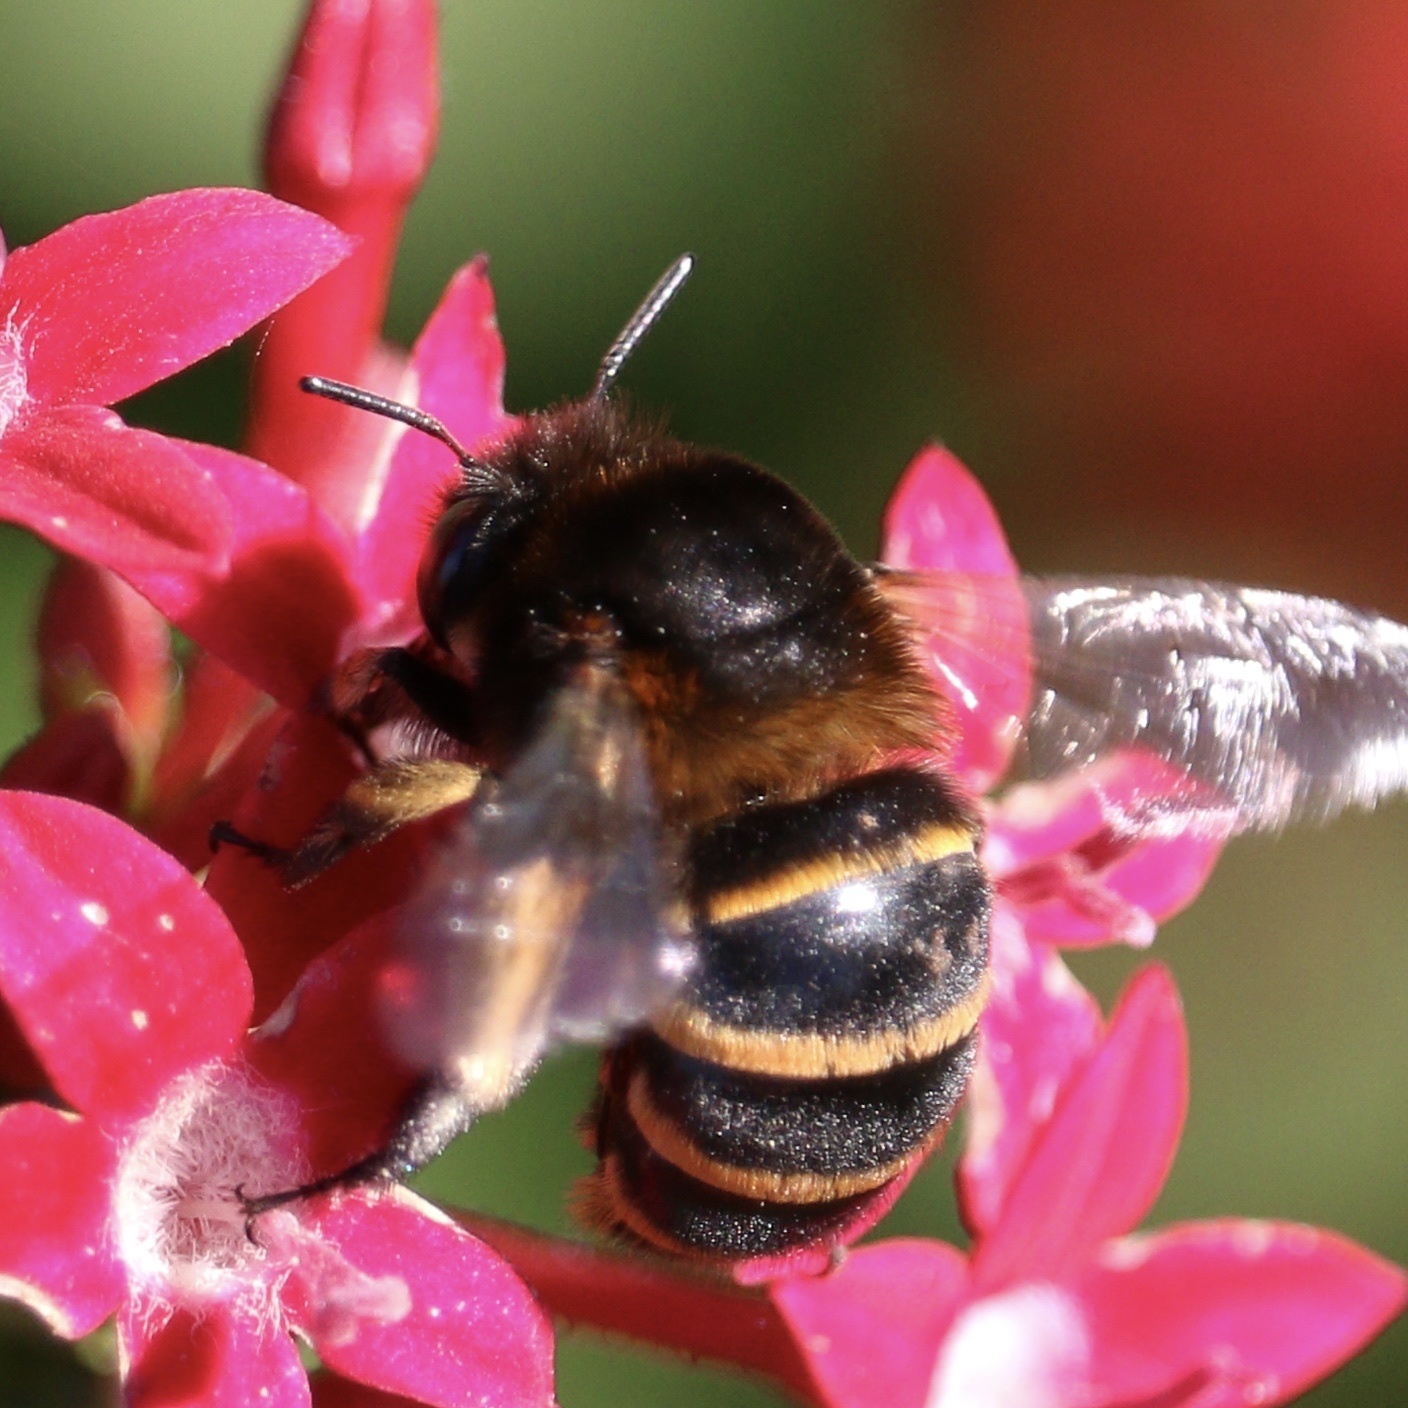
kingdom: Animalia
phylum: Arthropoda
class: Insecta
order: Hymenoptera
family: Apidae
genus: Amegilla
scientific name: Amegilla quadrifasciata
